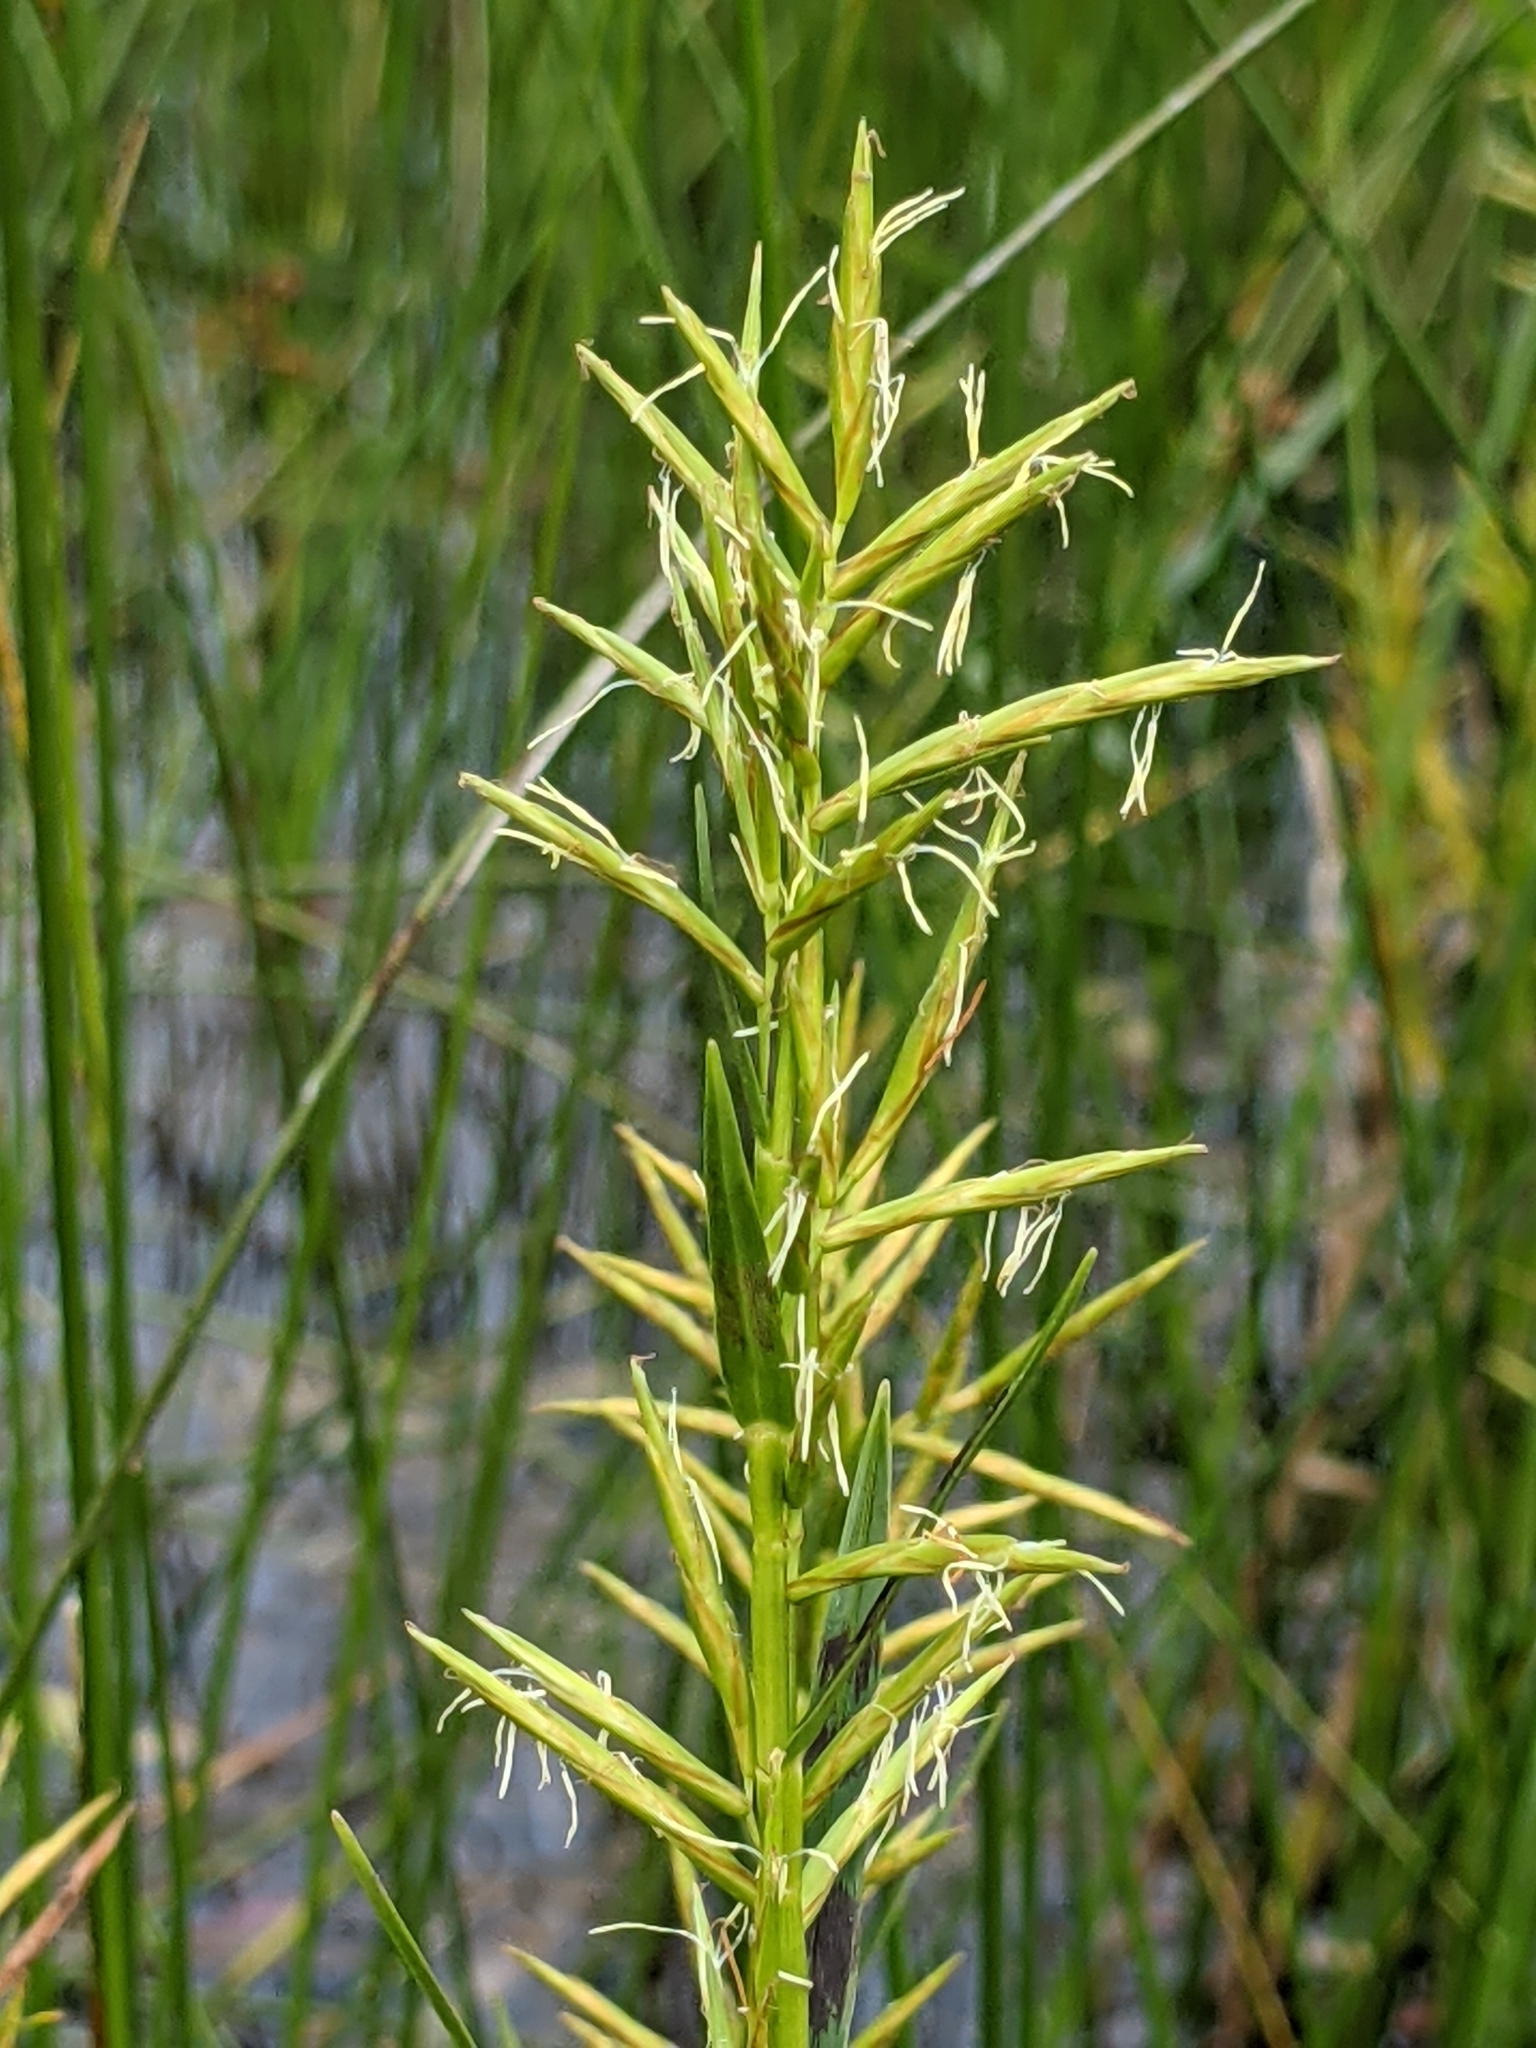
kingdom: Plantae
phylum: Tracheophyta
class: Liliopsida
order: Poales
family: Cyperaceae
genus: Dulichium
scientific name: Dulichium arundinaceum
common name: Three-way sedge
